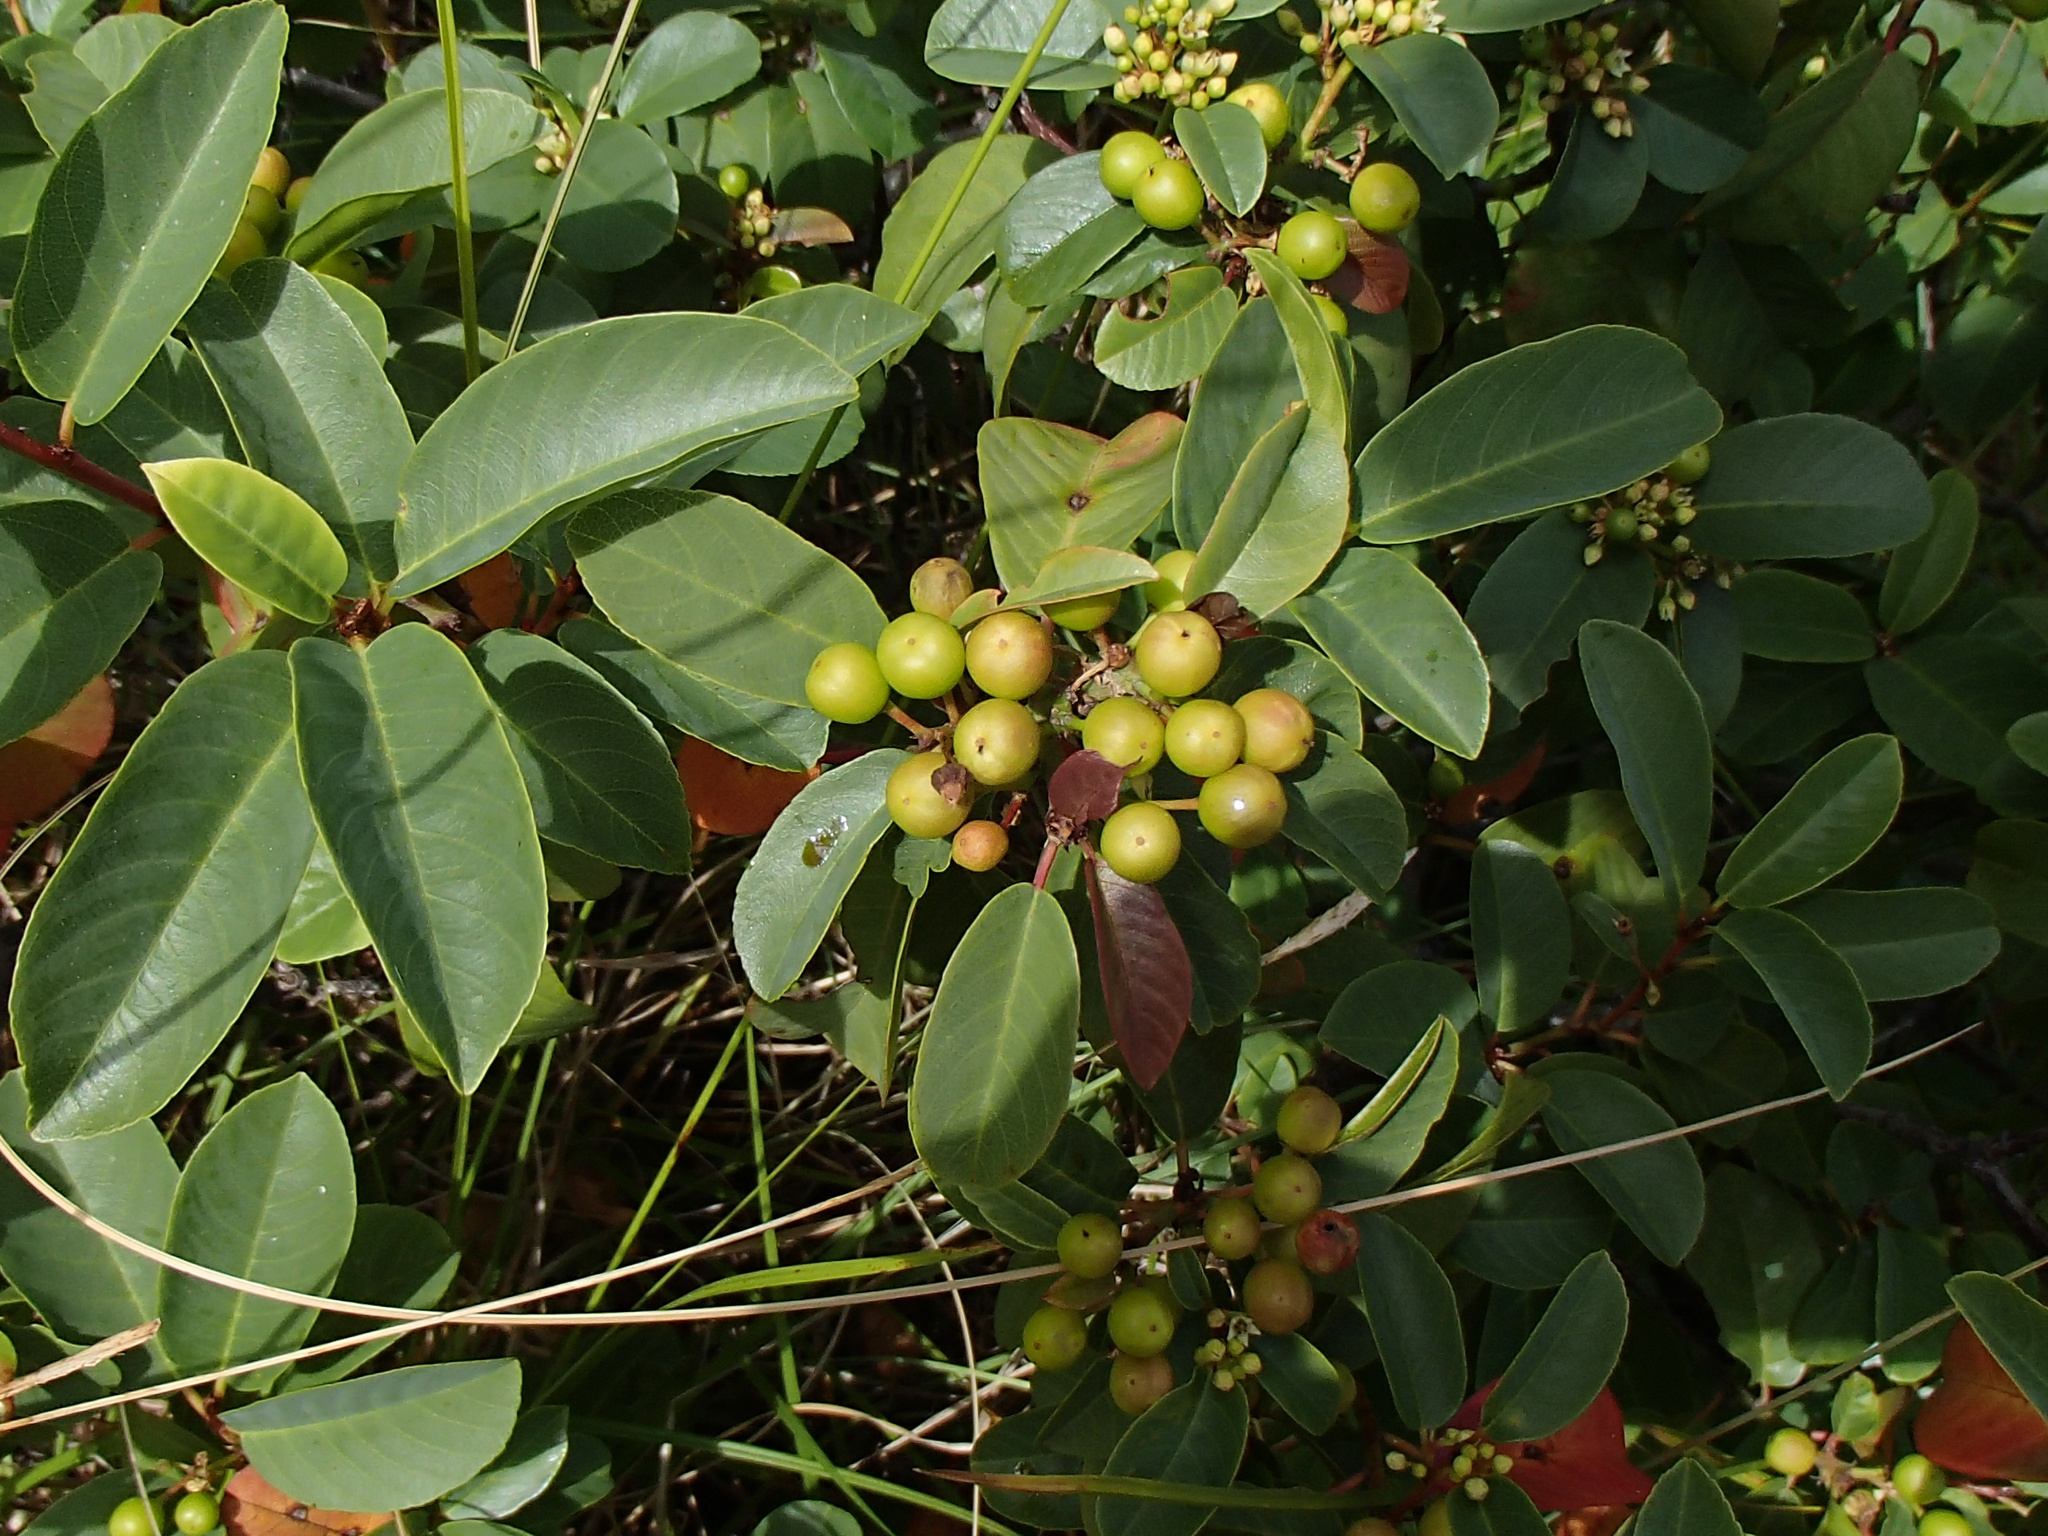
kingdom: Plantae
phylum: Tracheophyta
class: Magnoliopsida
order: Rosales
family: Rhamnaceae
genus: Frangula
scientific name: Frangula californica
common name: California buckthorn
